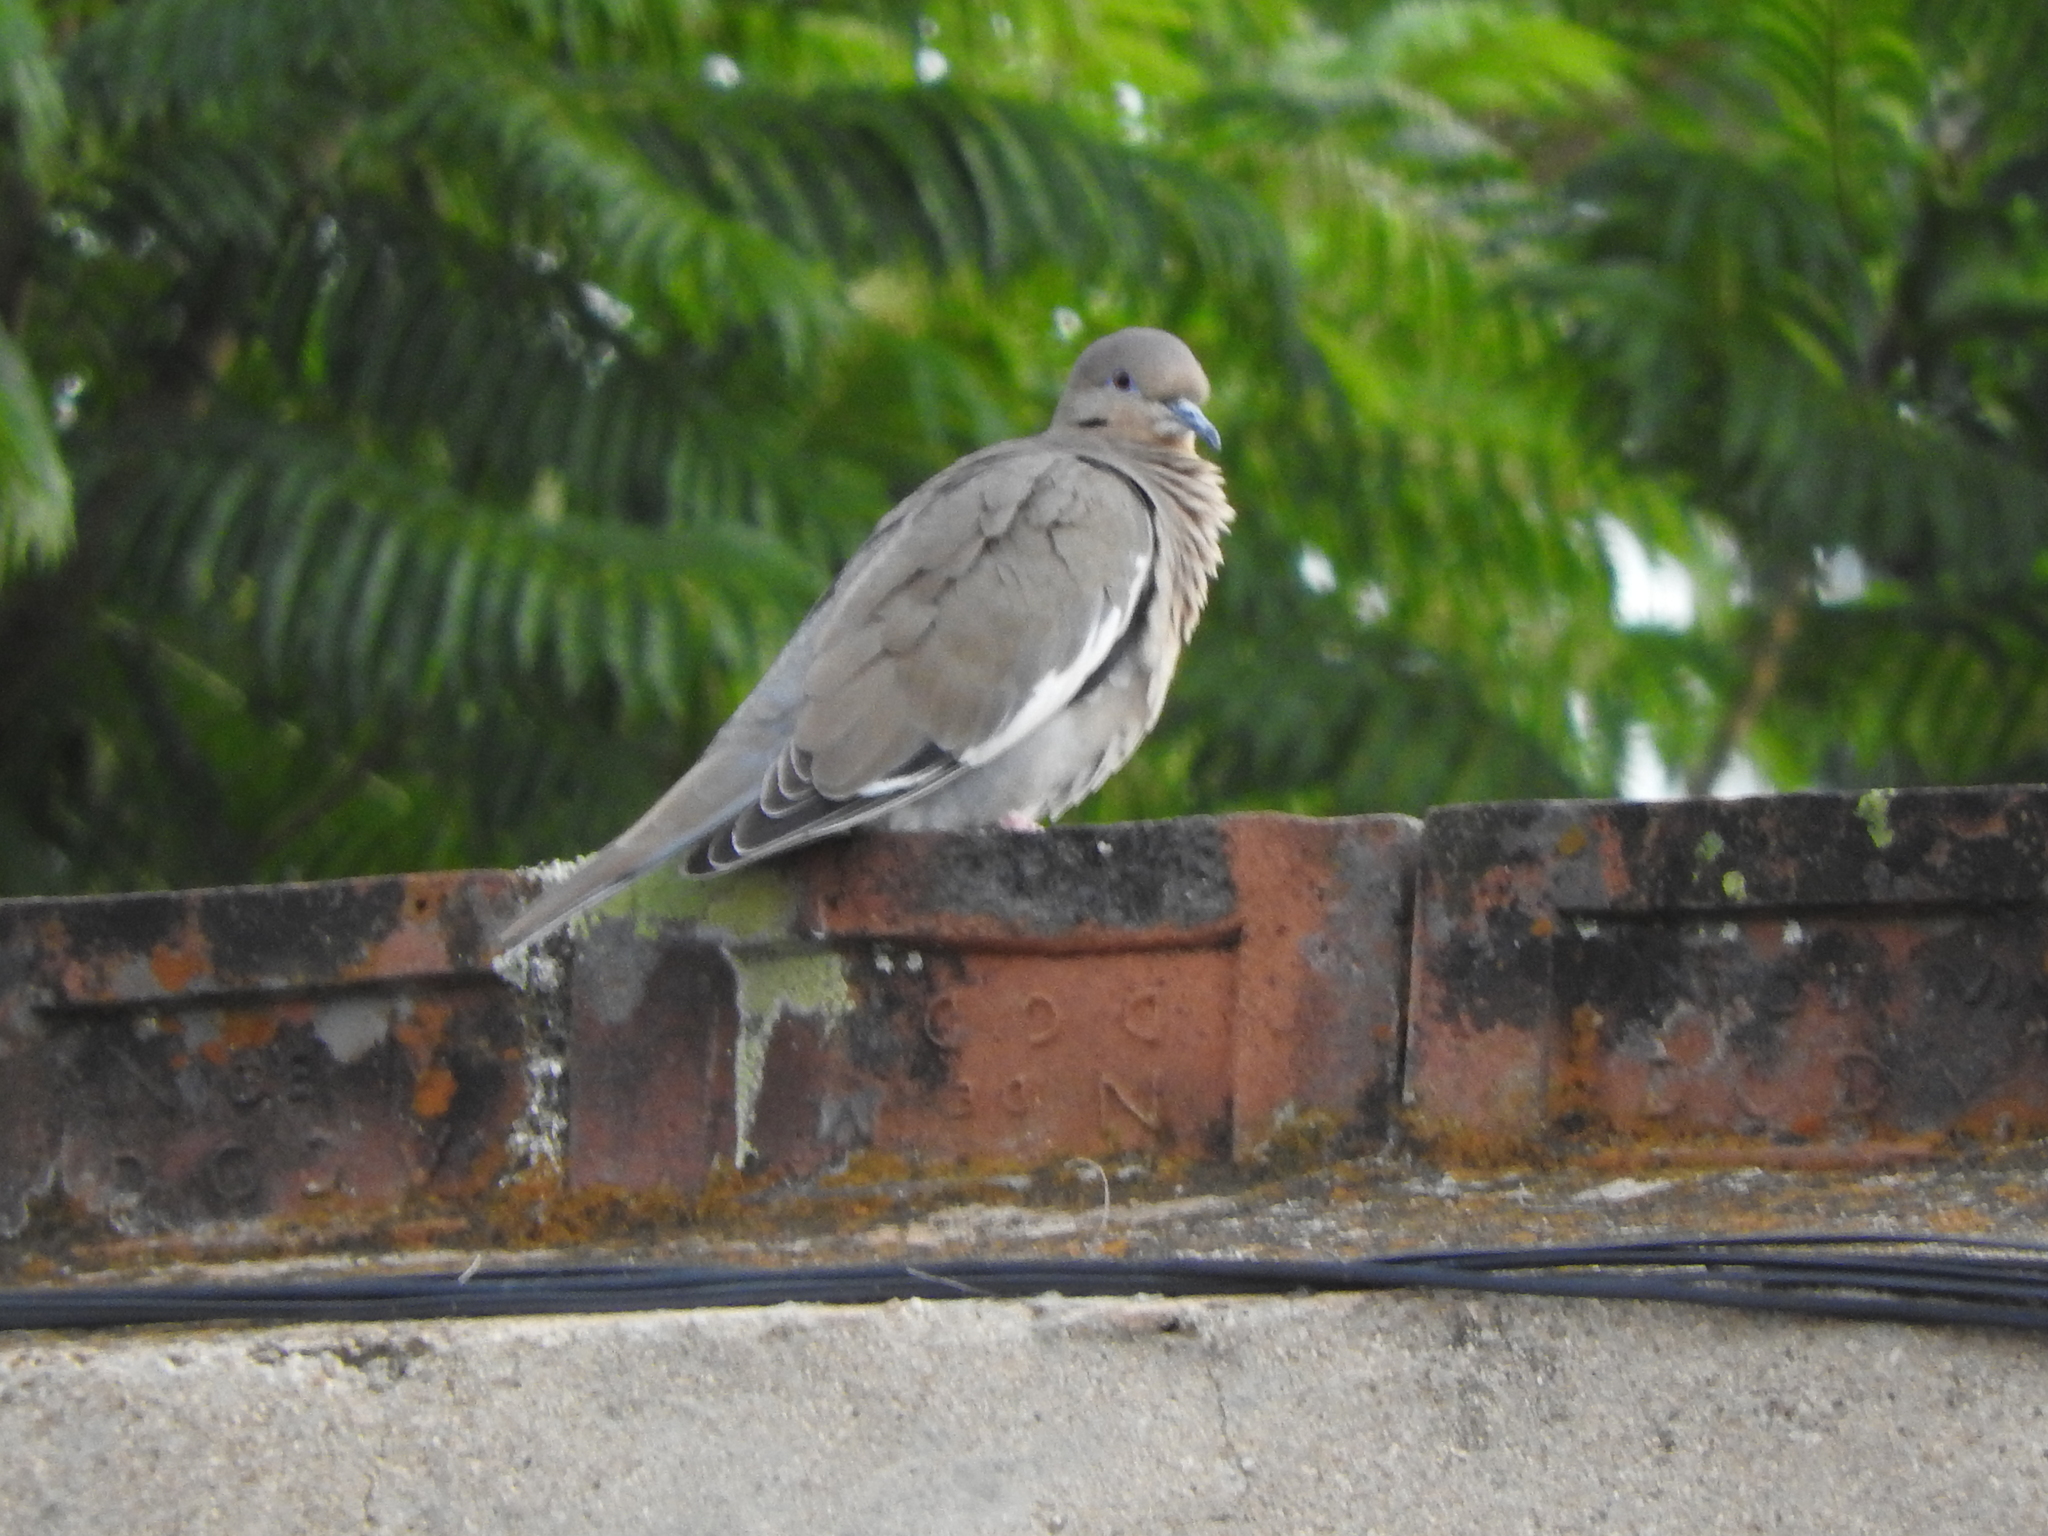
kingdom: Animalia
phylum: Chordata
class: Aves
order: Columbiformes
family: Columbidae
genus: Zenaida
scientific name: Zenaida asiatica
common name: White-winged dove
